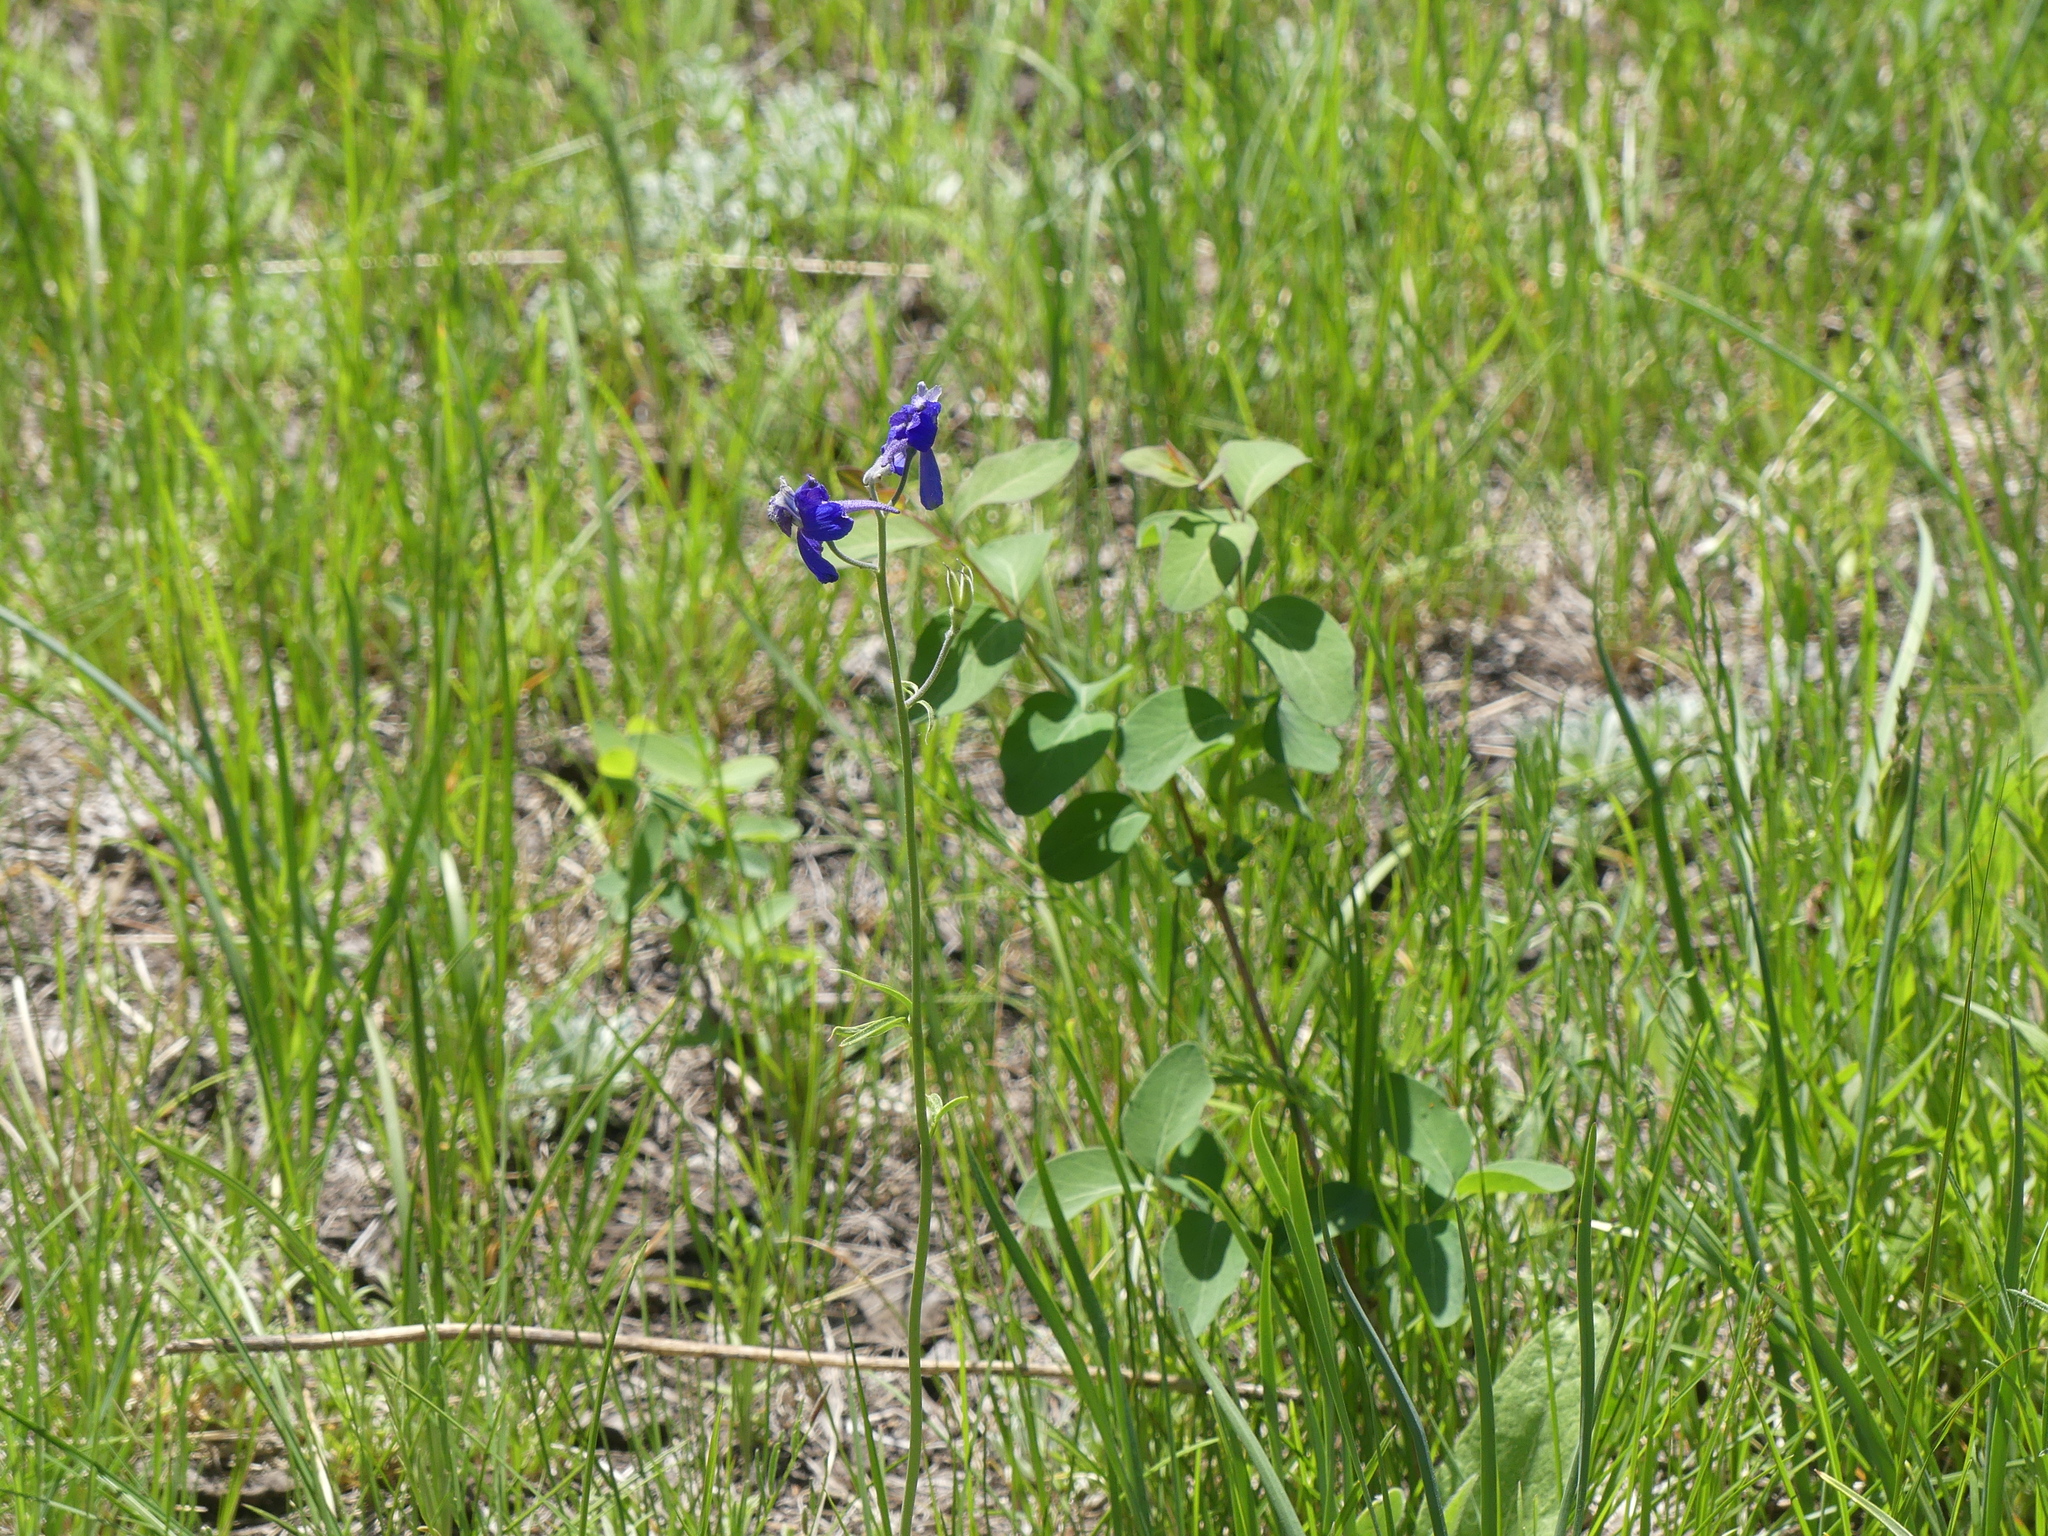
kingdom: Plantae
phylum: Tracheophyta
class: Magnoliopsida
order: Ranunculales
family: Ranunculaceae
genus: Delphinium
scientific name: Delphinium nuttallianum
